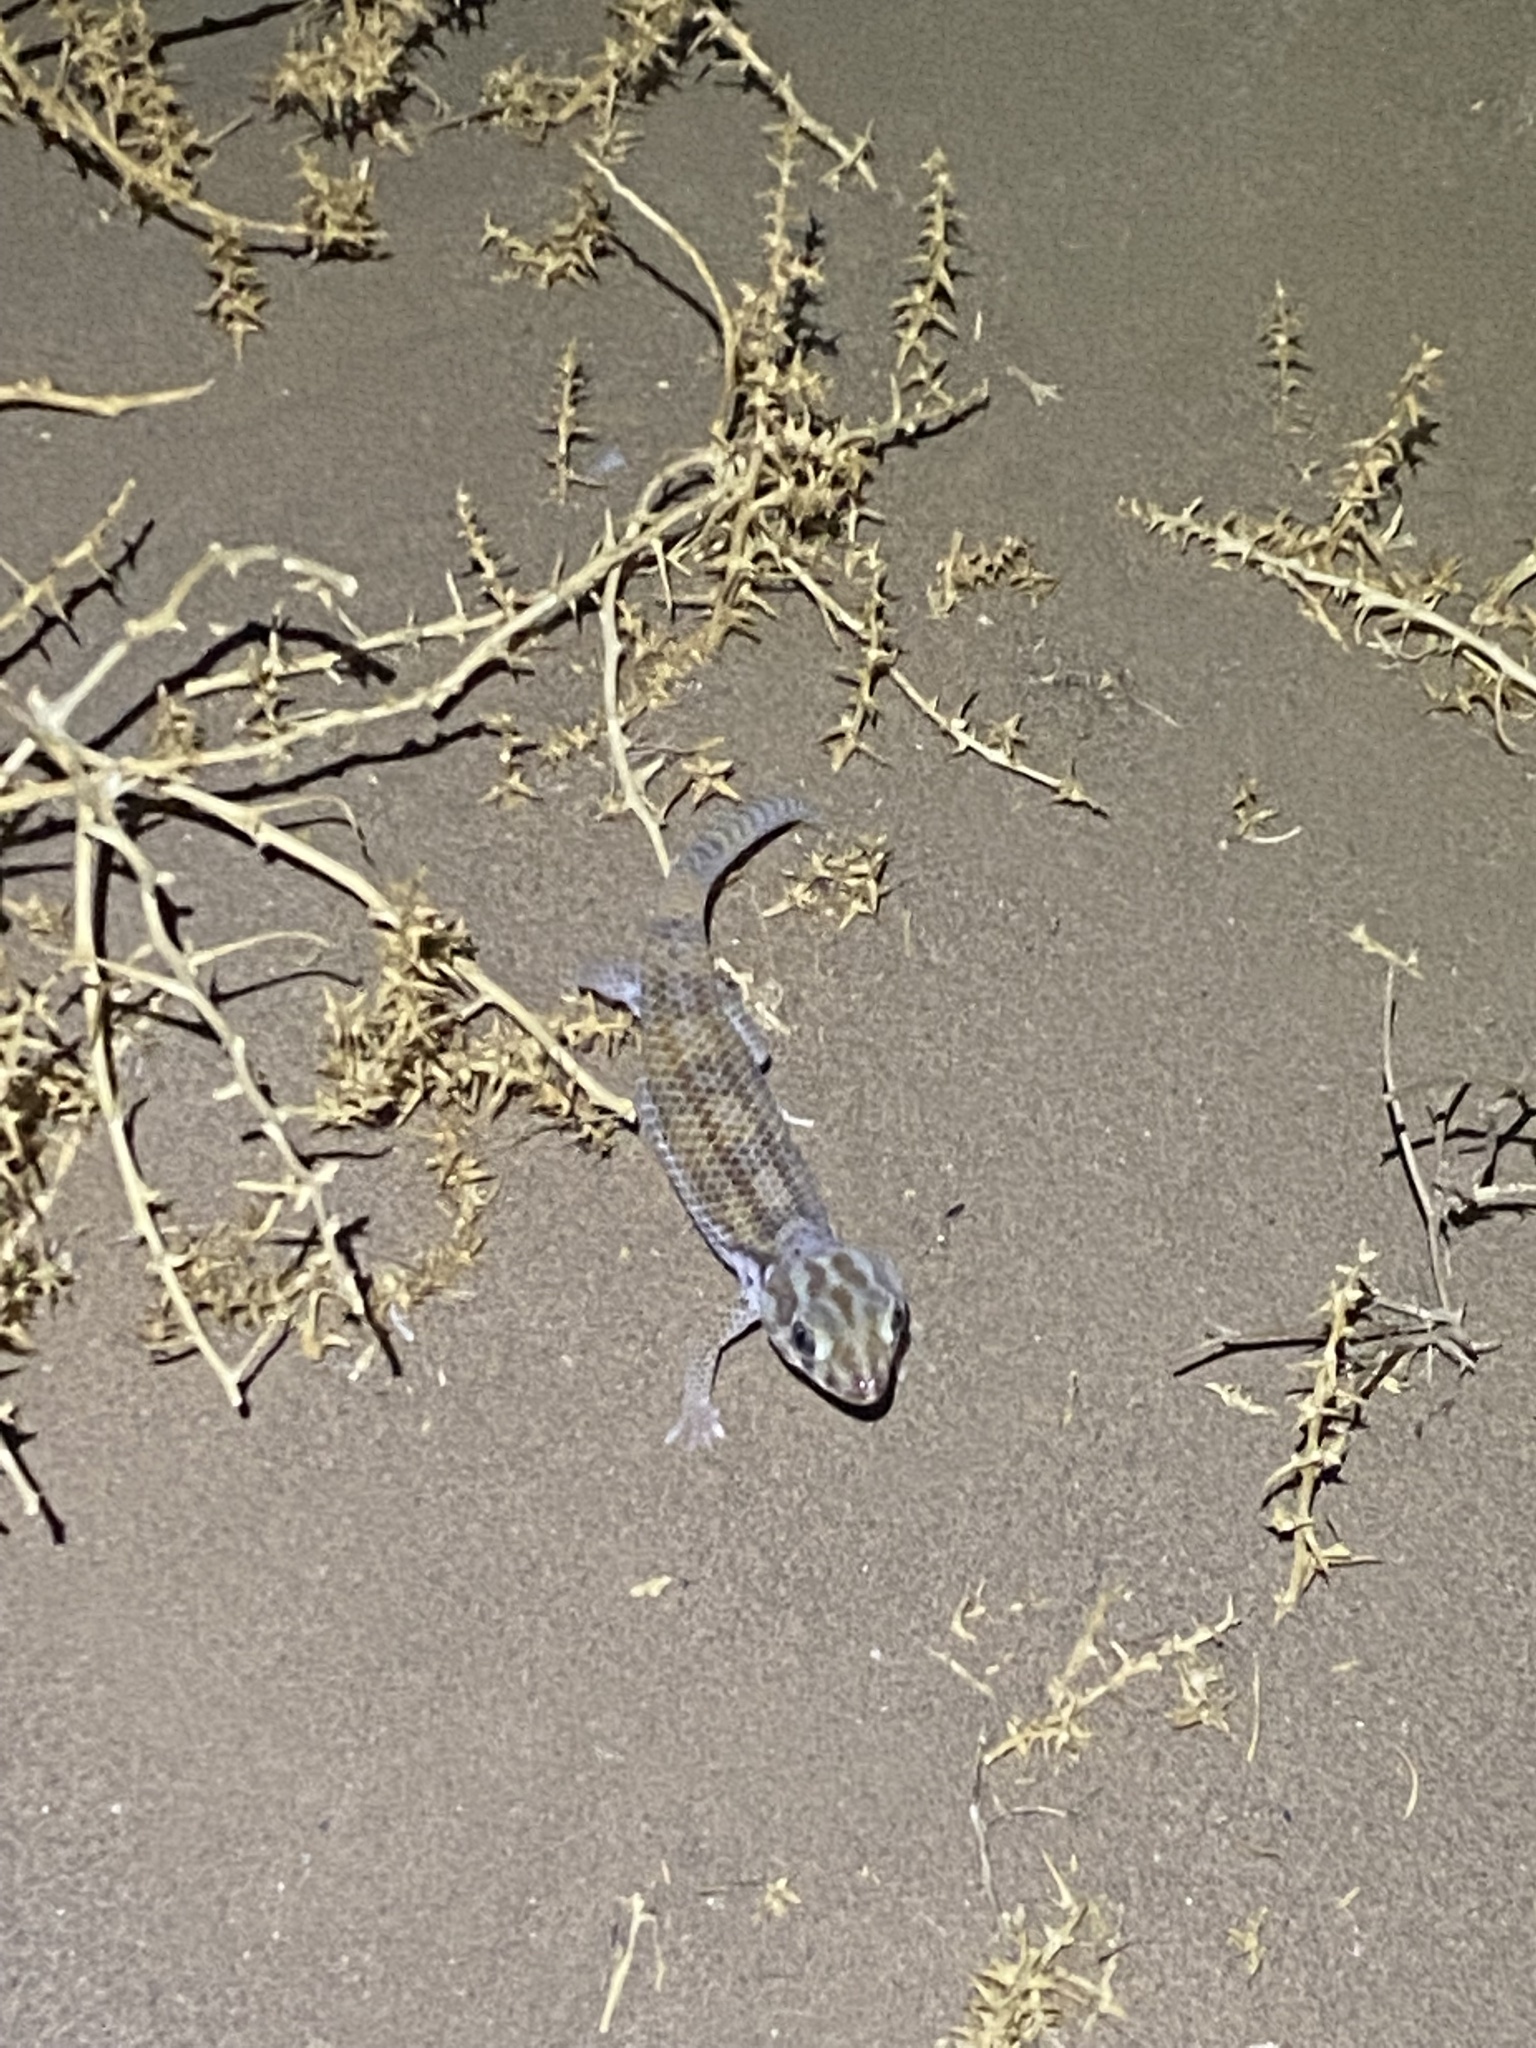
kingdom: Animalia
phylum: Chordata
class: Squamata
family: Sphaerodactylidae
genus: Teratoscincus
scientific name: Teratoscincus keyserlingii
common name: Frog-eyed gecko
